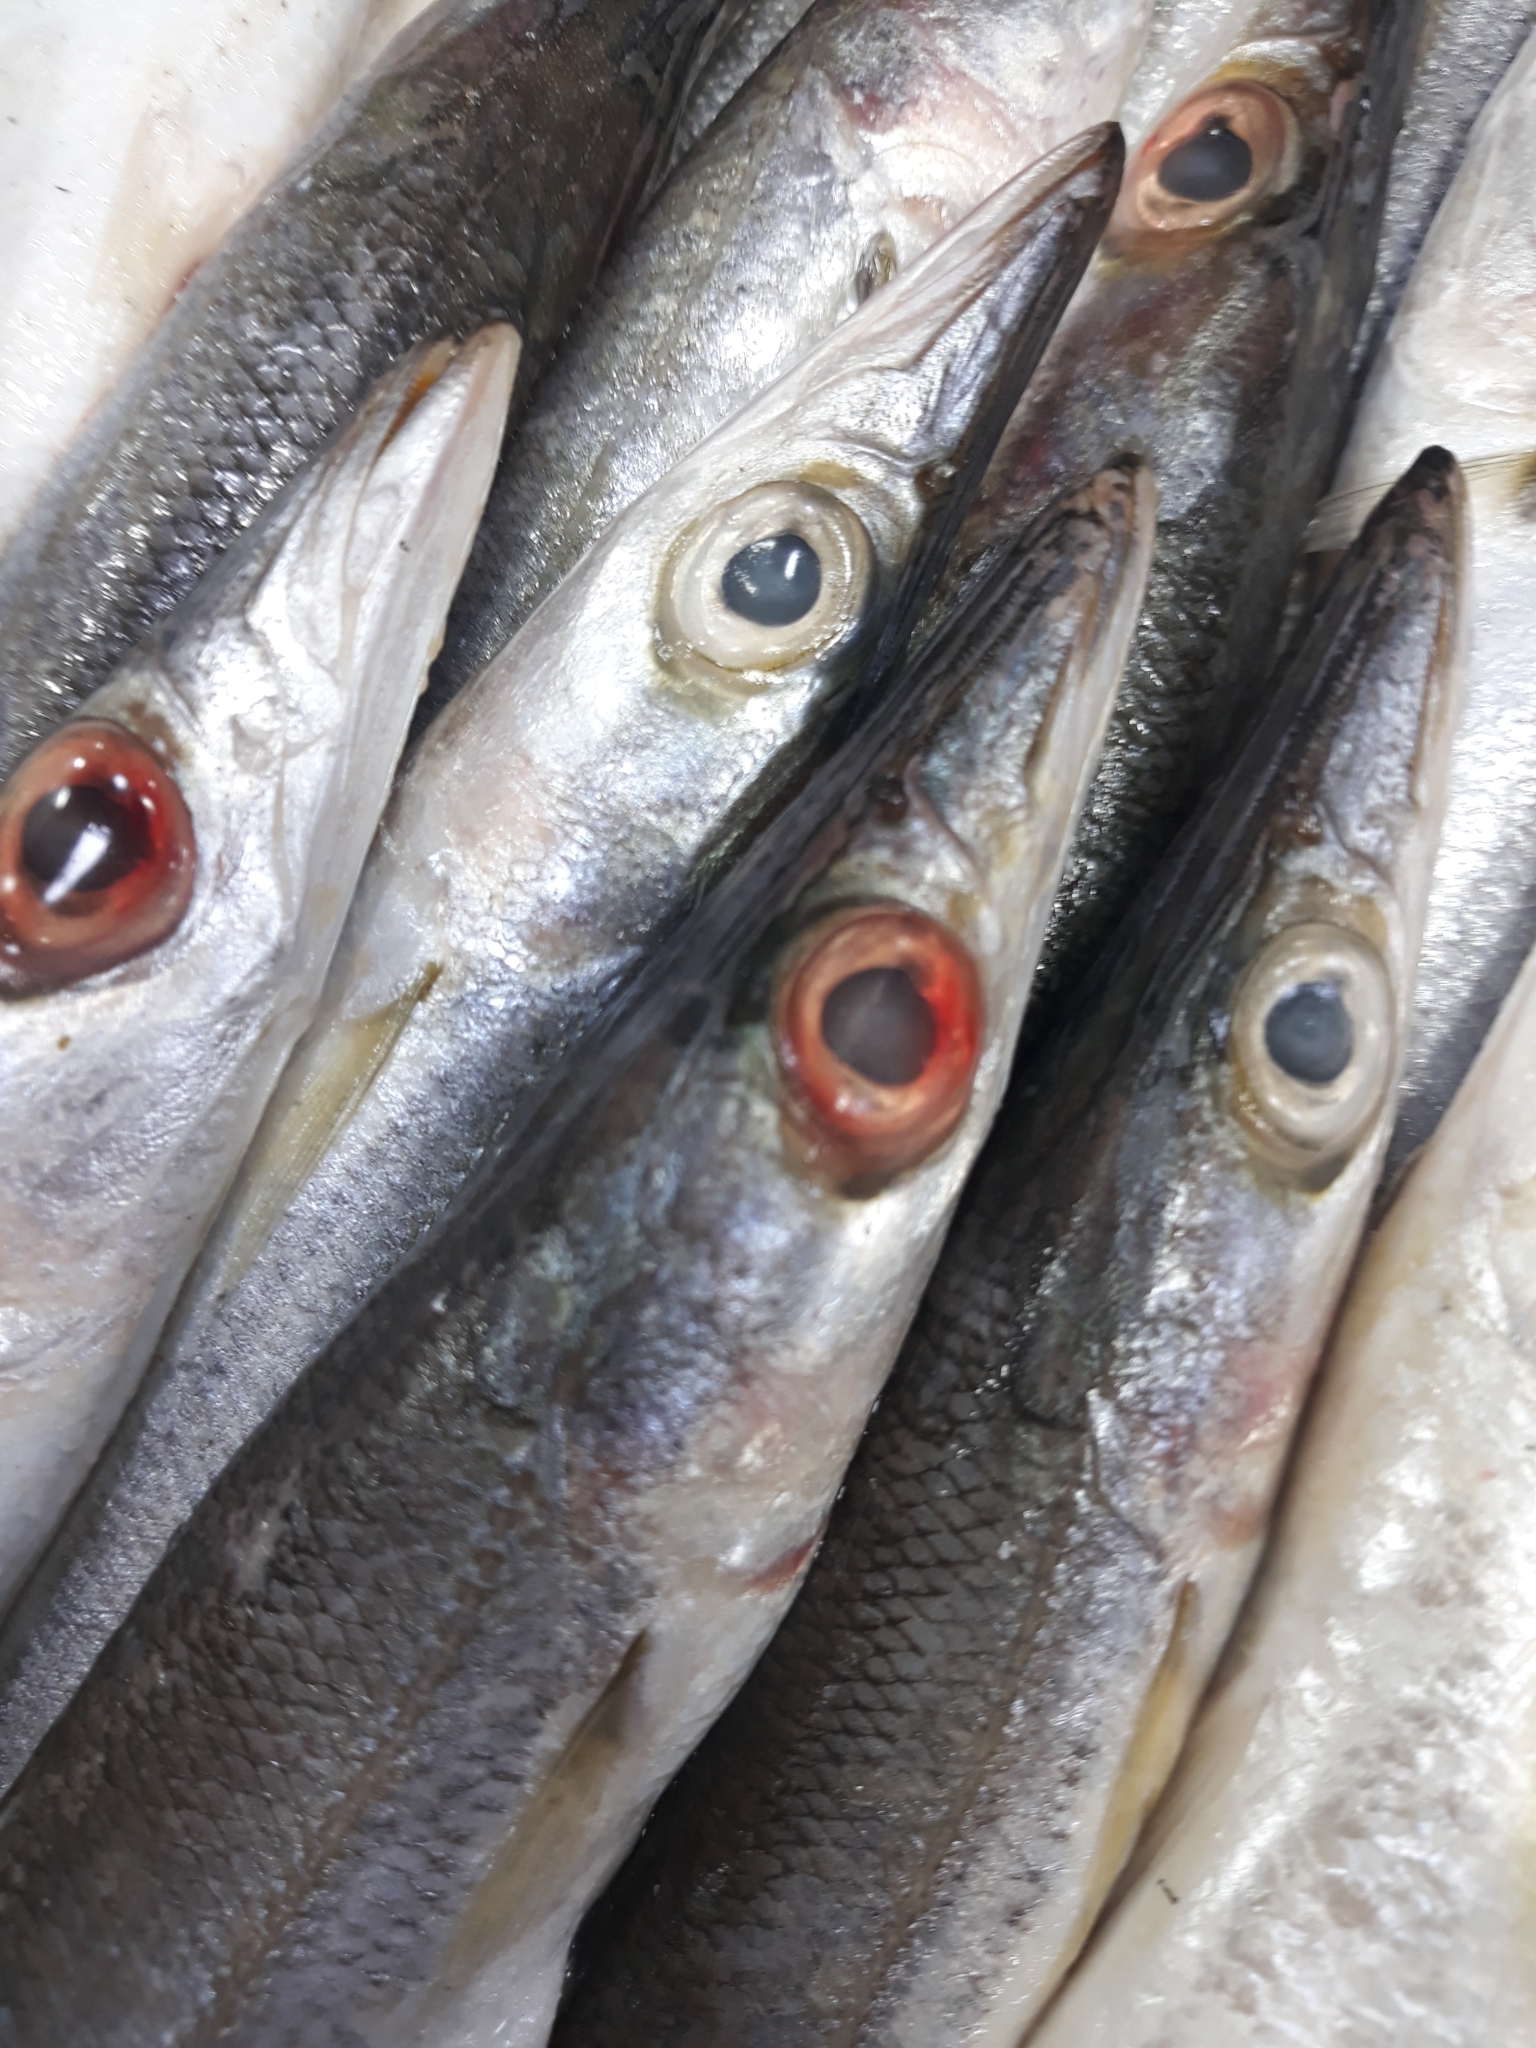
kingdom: Animalia
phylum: Chordata
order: Perciformes
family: Sphyraenidae
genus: Sphyraena
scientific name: Sphyraena sphyraena
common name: European barracuda
